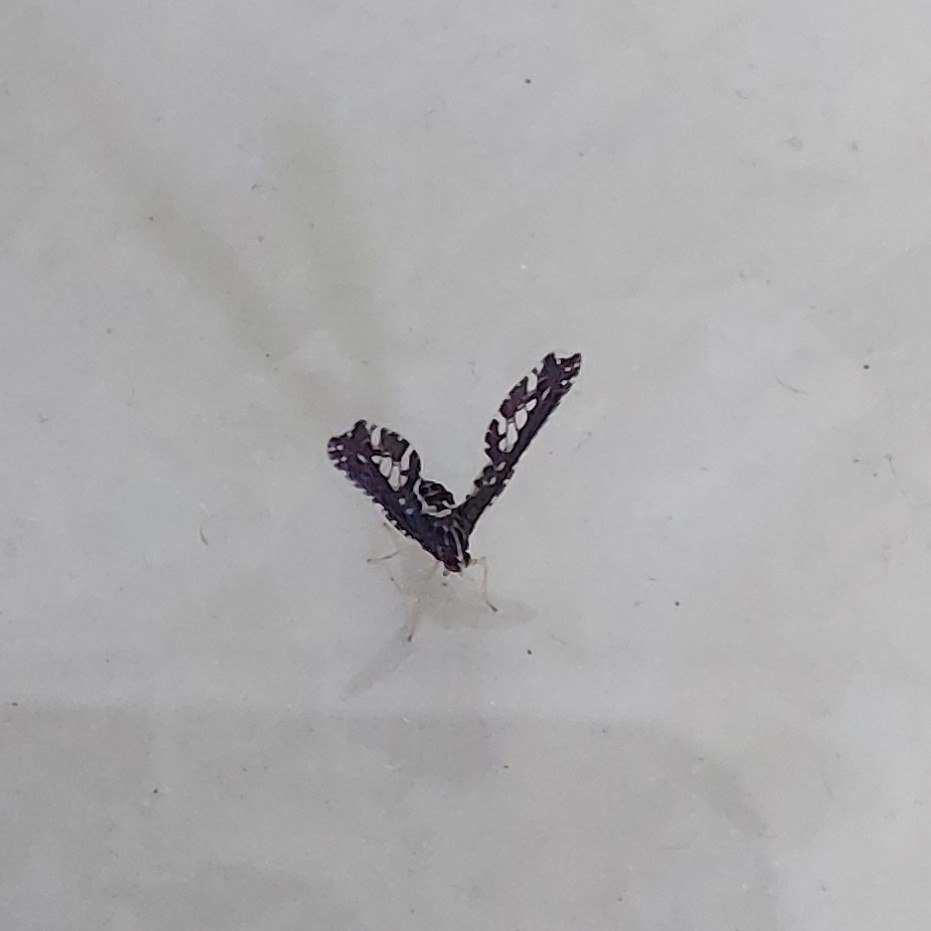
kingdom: Animalia
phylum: Arthropoda
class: Insecta
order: Hemiptera
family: Derbidae
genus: Proutista
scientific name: Proutista moesta
